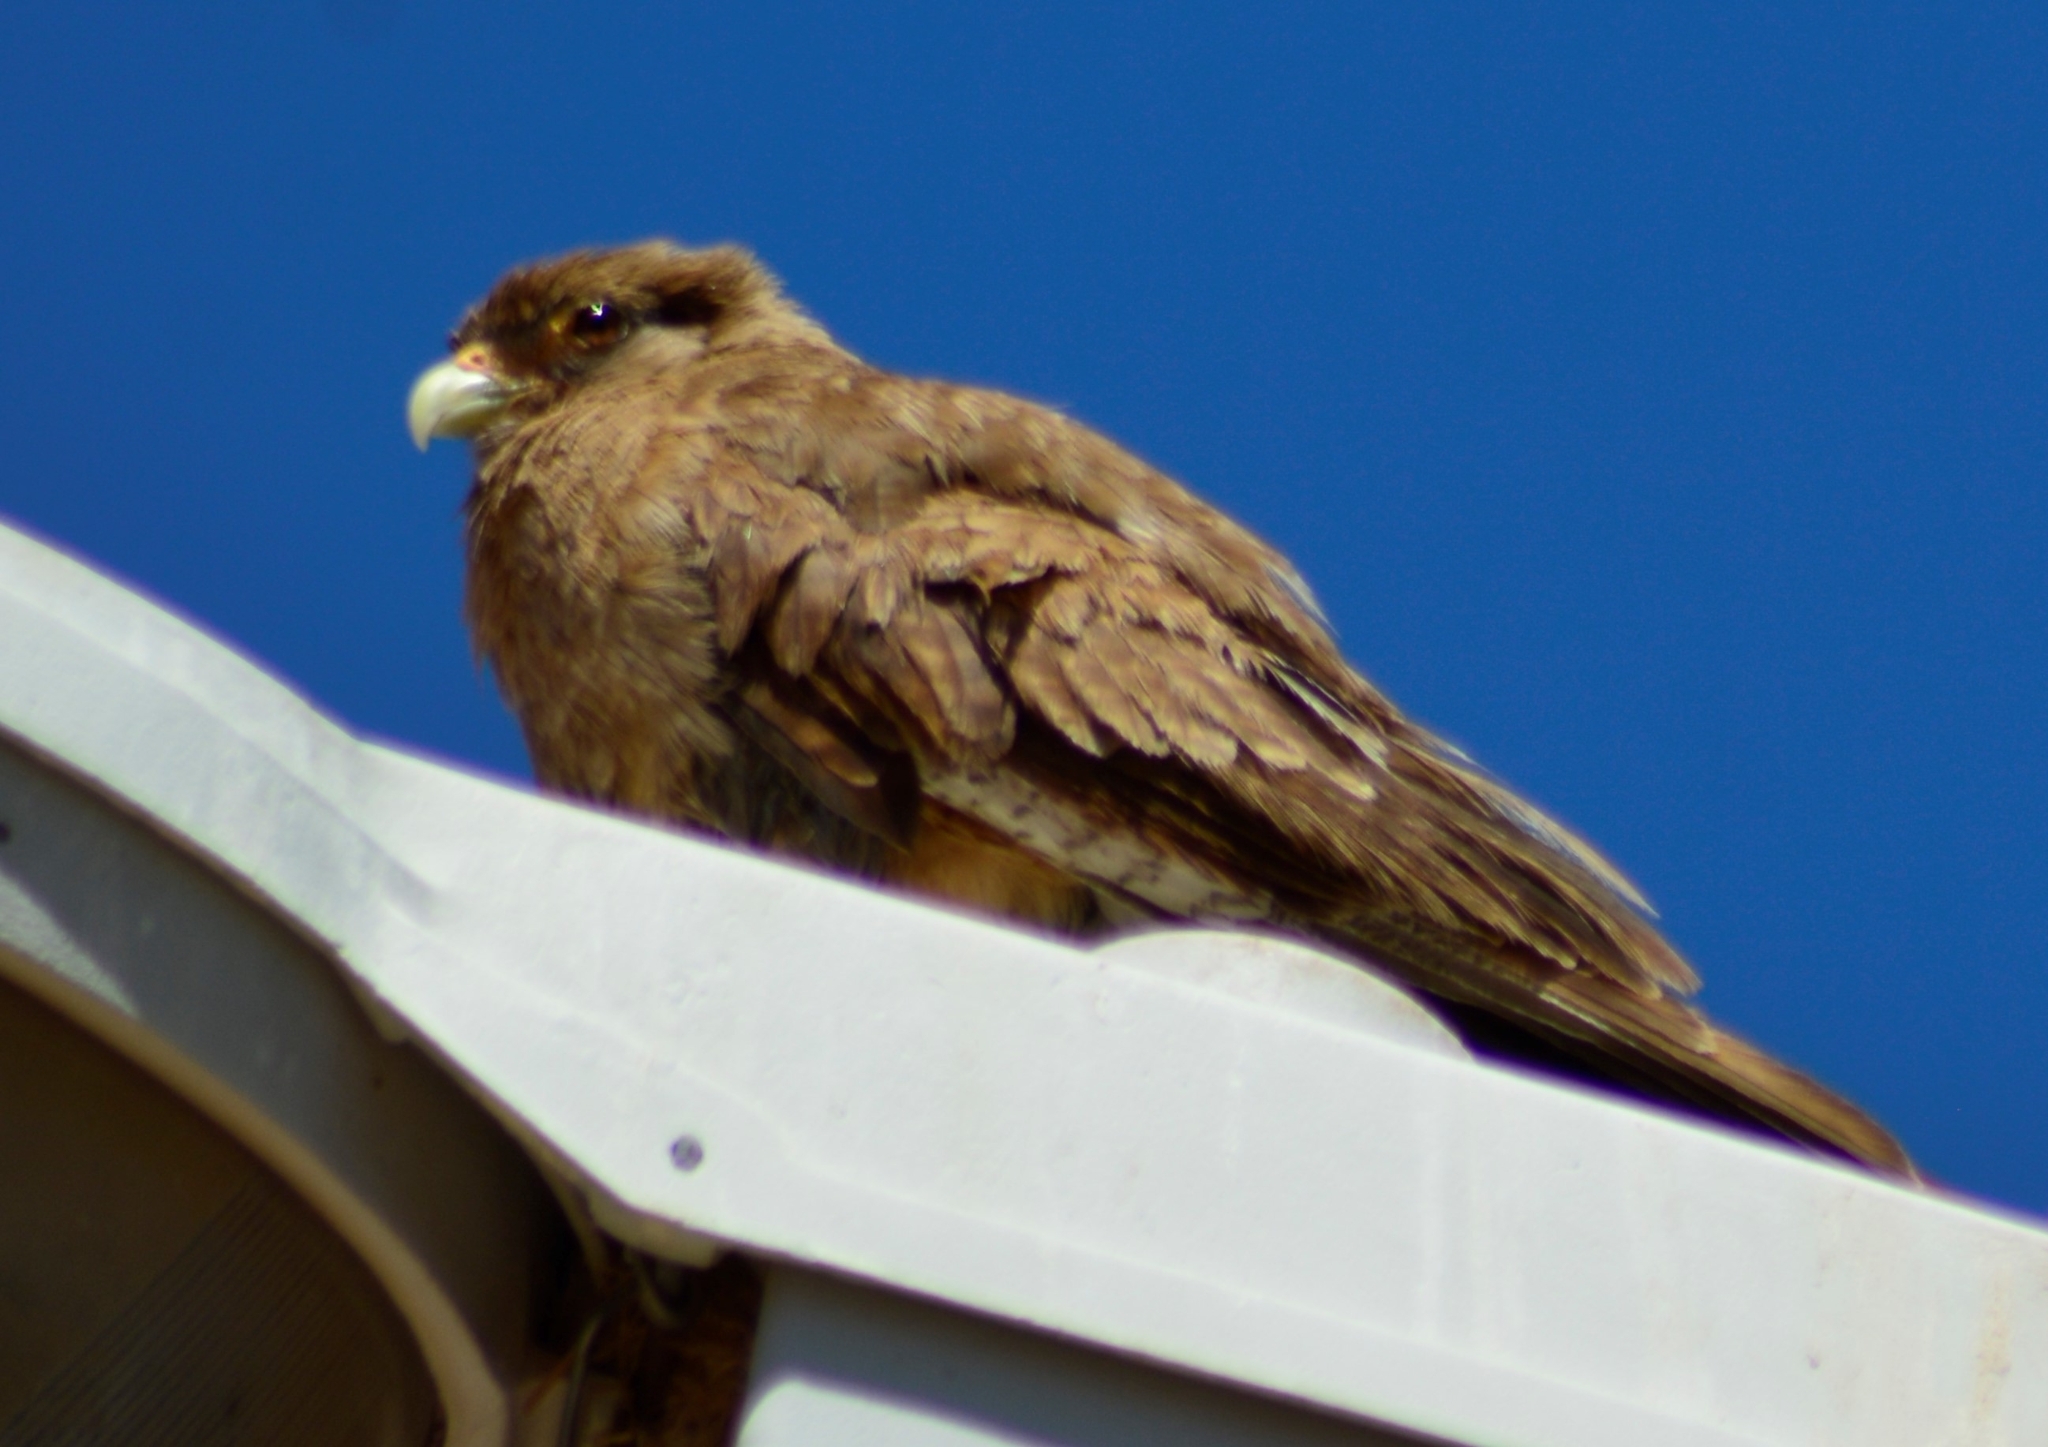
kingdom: Animalia
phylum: Chordata
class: Aves
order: Falconiformes
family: Falconidae
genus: Daptrius
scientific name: Daptrius
